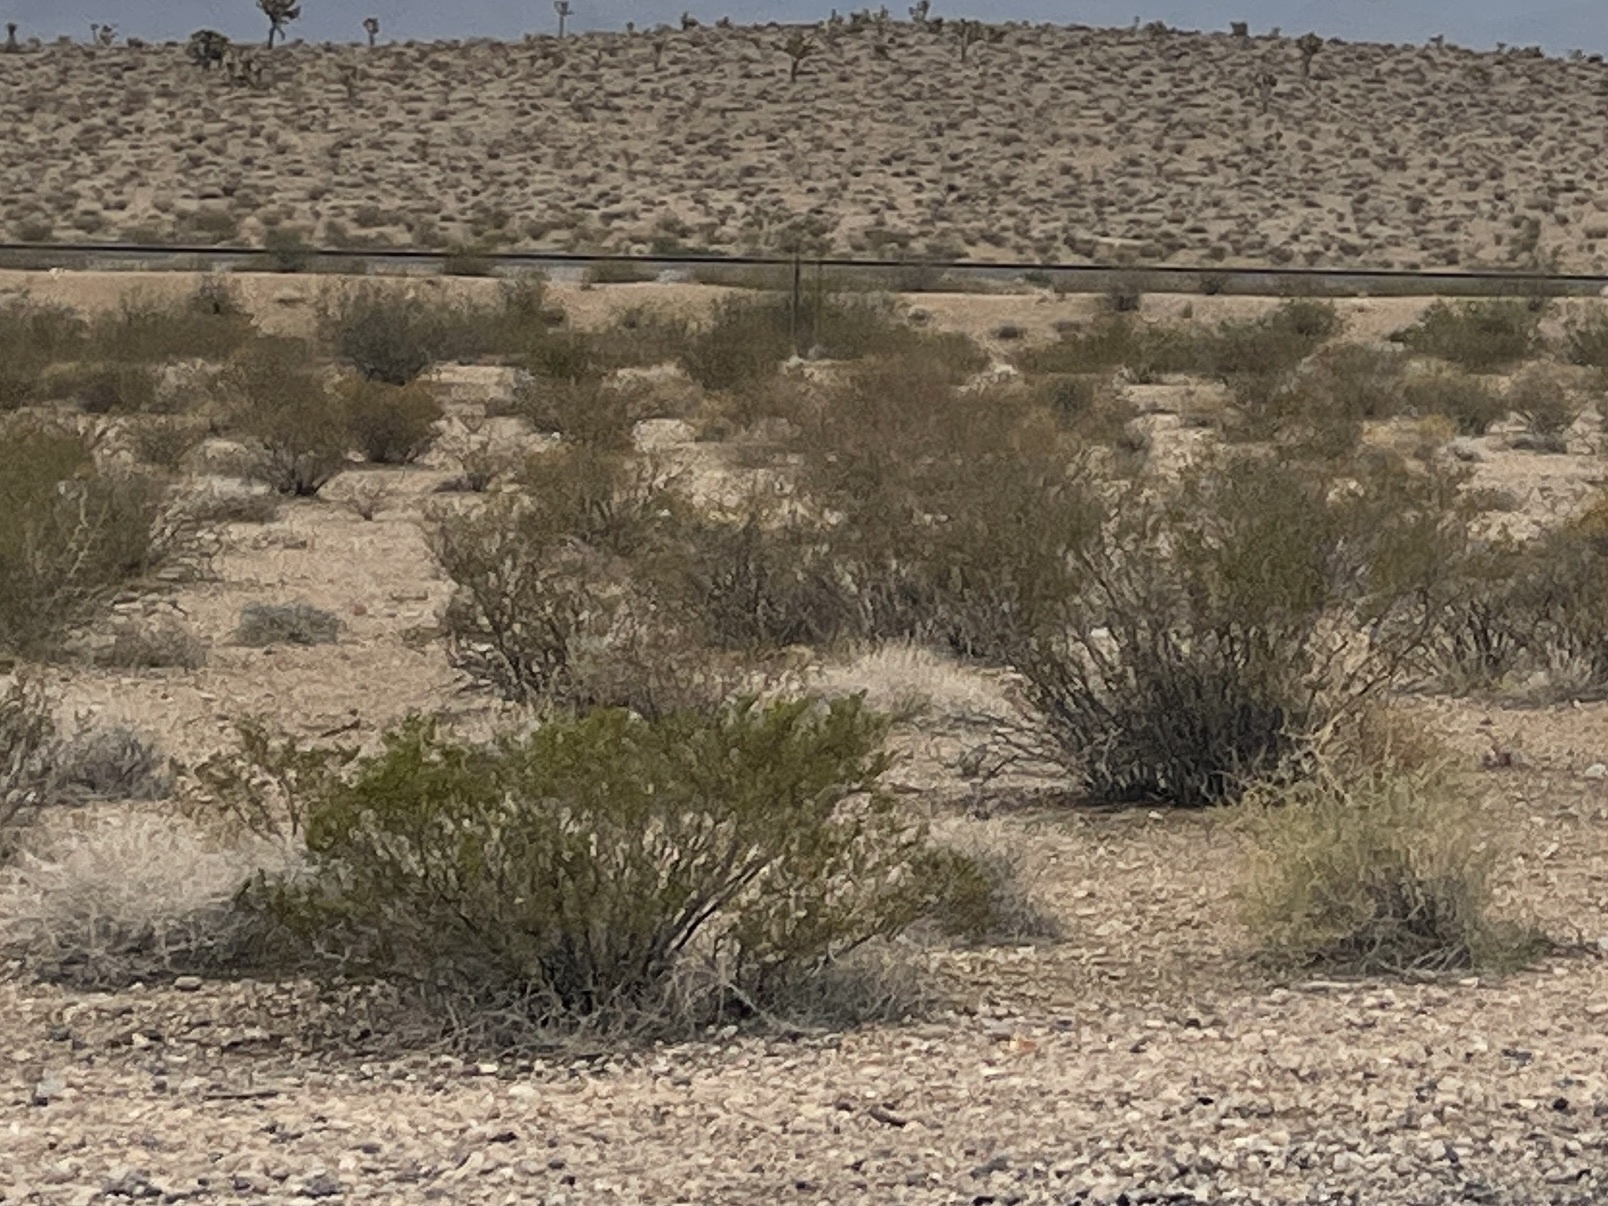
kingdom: Plantae
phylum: Tracheophyta
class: Magnoliopsida
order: Zygophyllales
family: Zygophyllaceae
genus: Larrea
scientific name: Larrea tridentata
